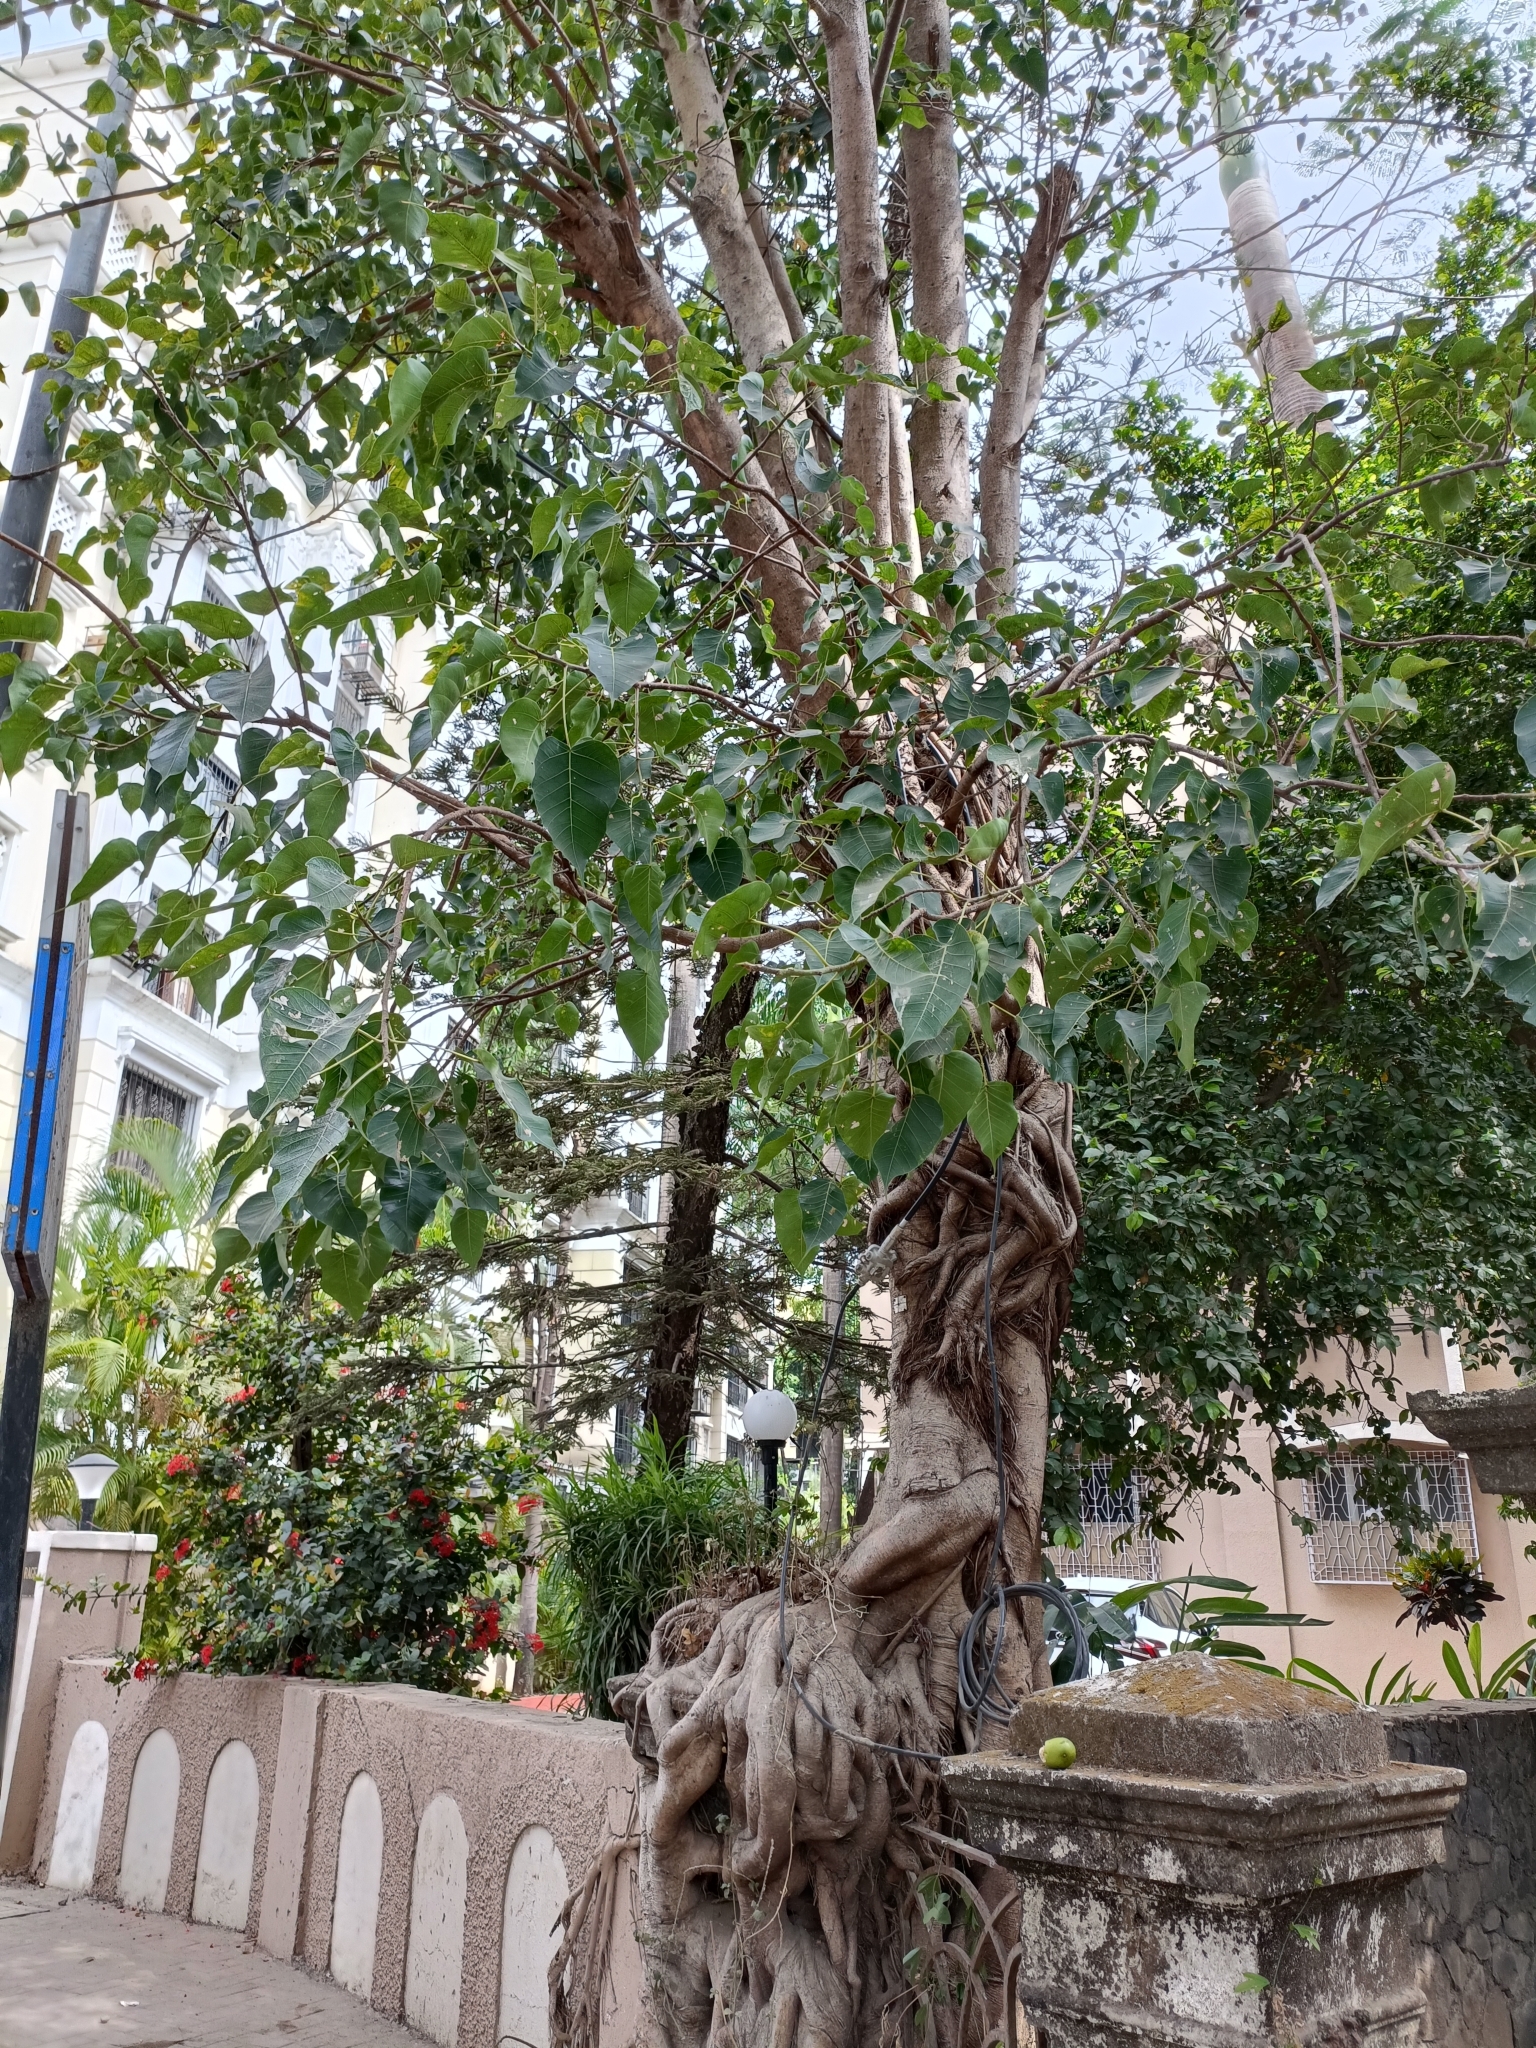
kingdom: Plantae
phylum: Tracheophyta
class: Magnoliopsida
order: Rosales
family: Moraceae
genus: Ficus
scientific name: Ficus religiosa
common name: Bodhi tree
